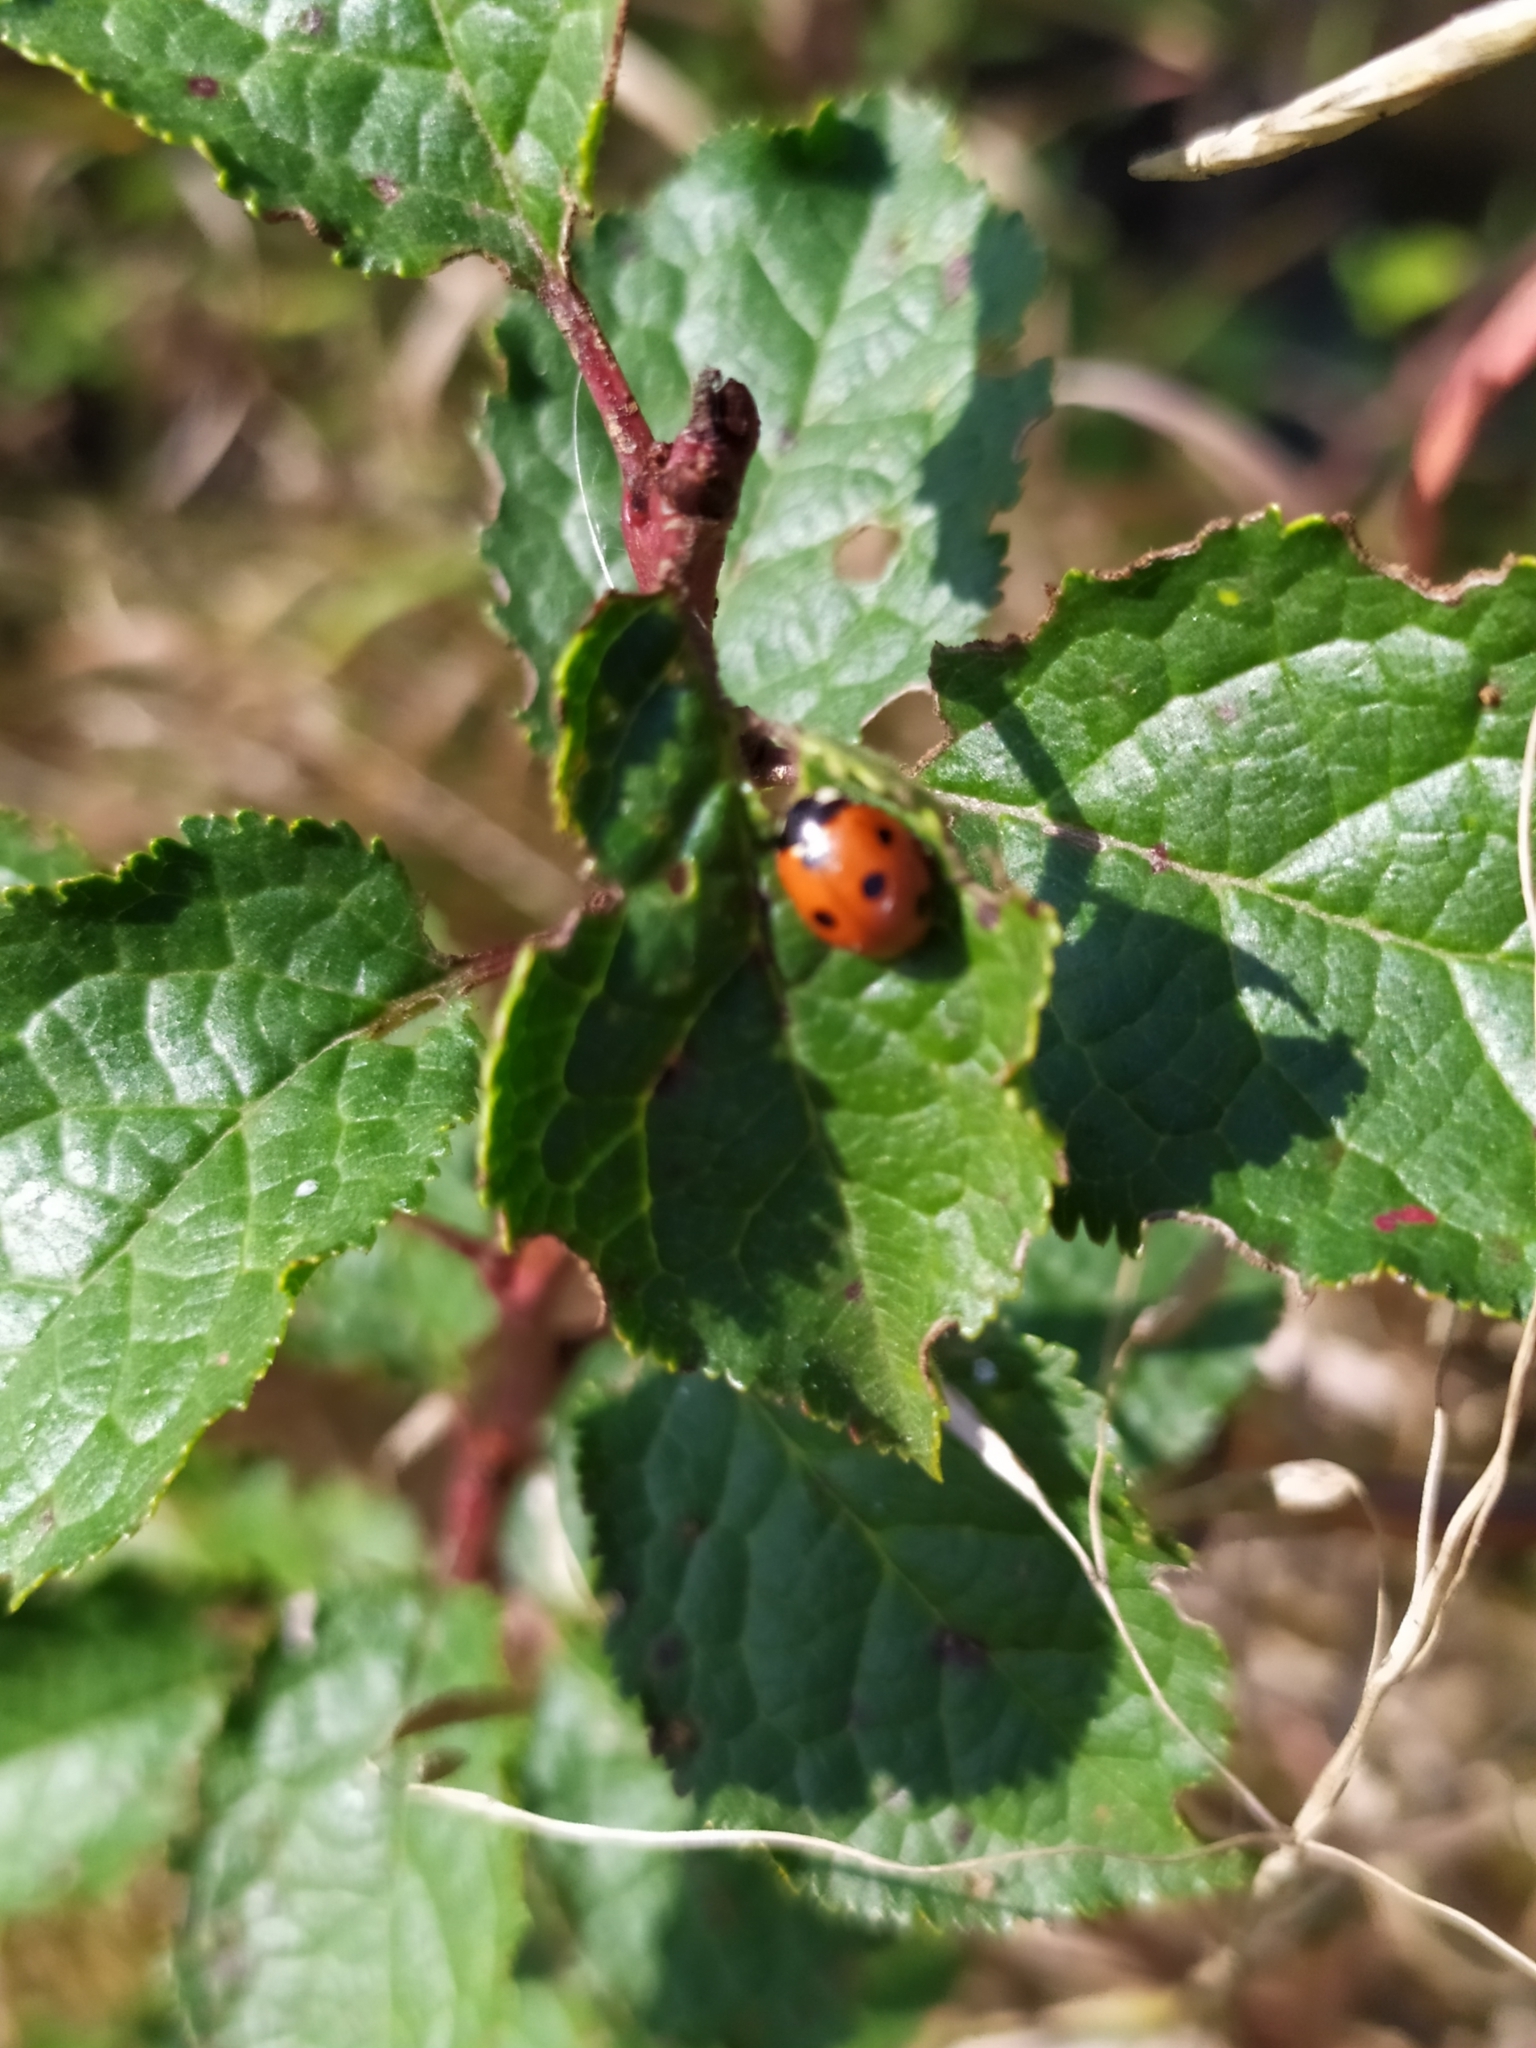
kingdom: Animalia
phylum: Arthropoda
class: Insecta
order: Coleoptera
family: Coccinellidae
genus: Coccinella
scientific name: Coccinella septempunctata
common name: Sevenspotted lady beetle
